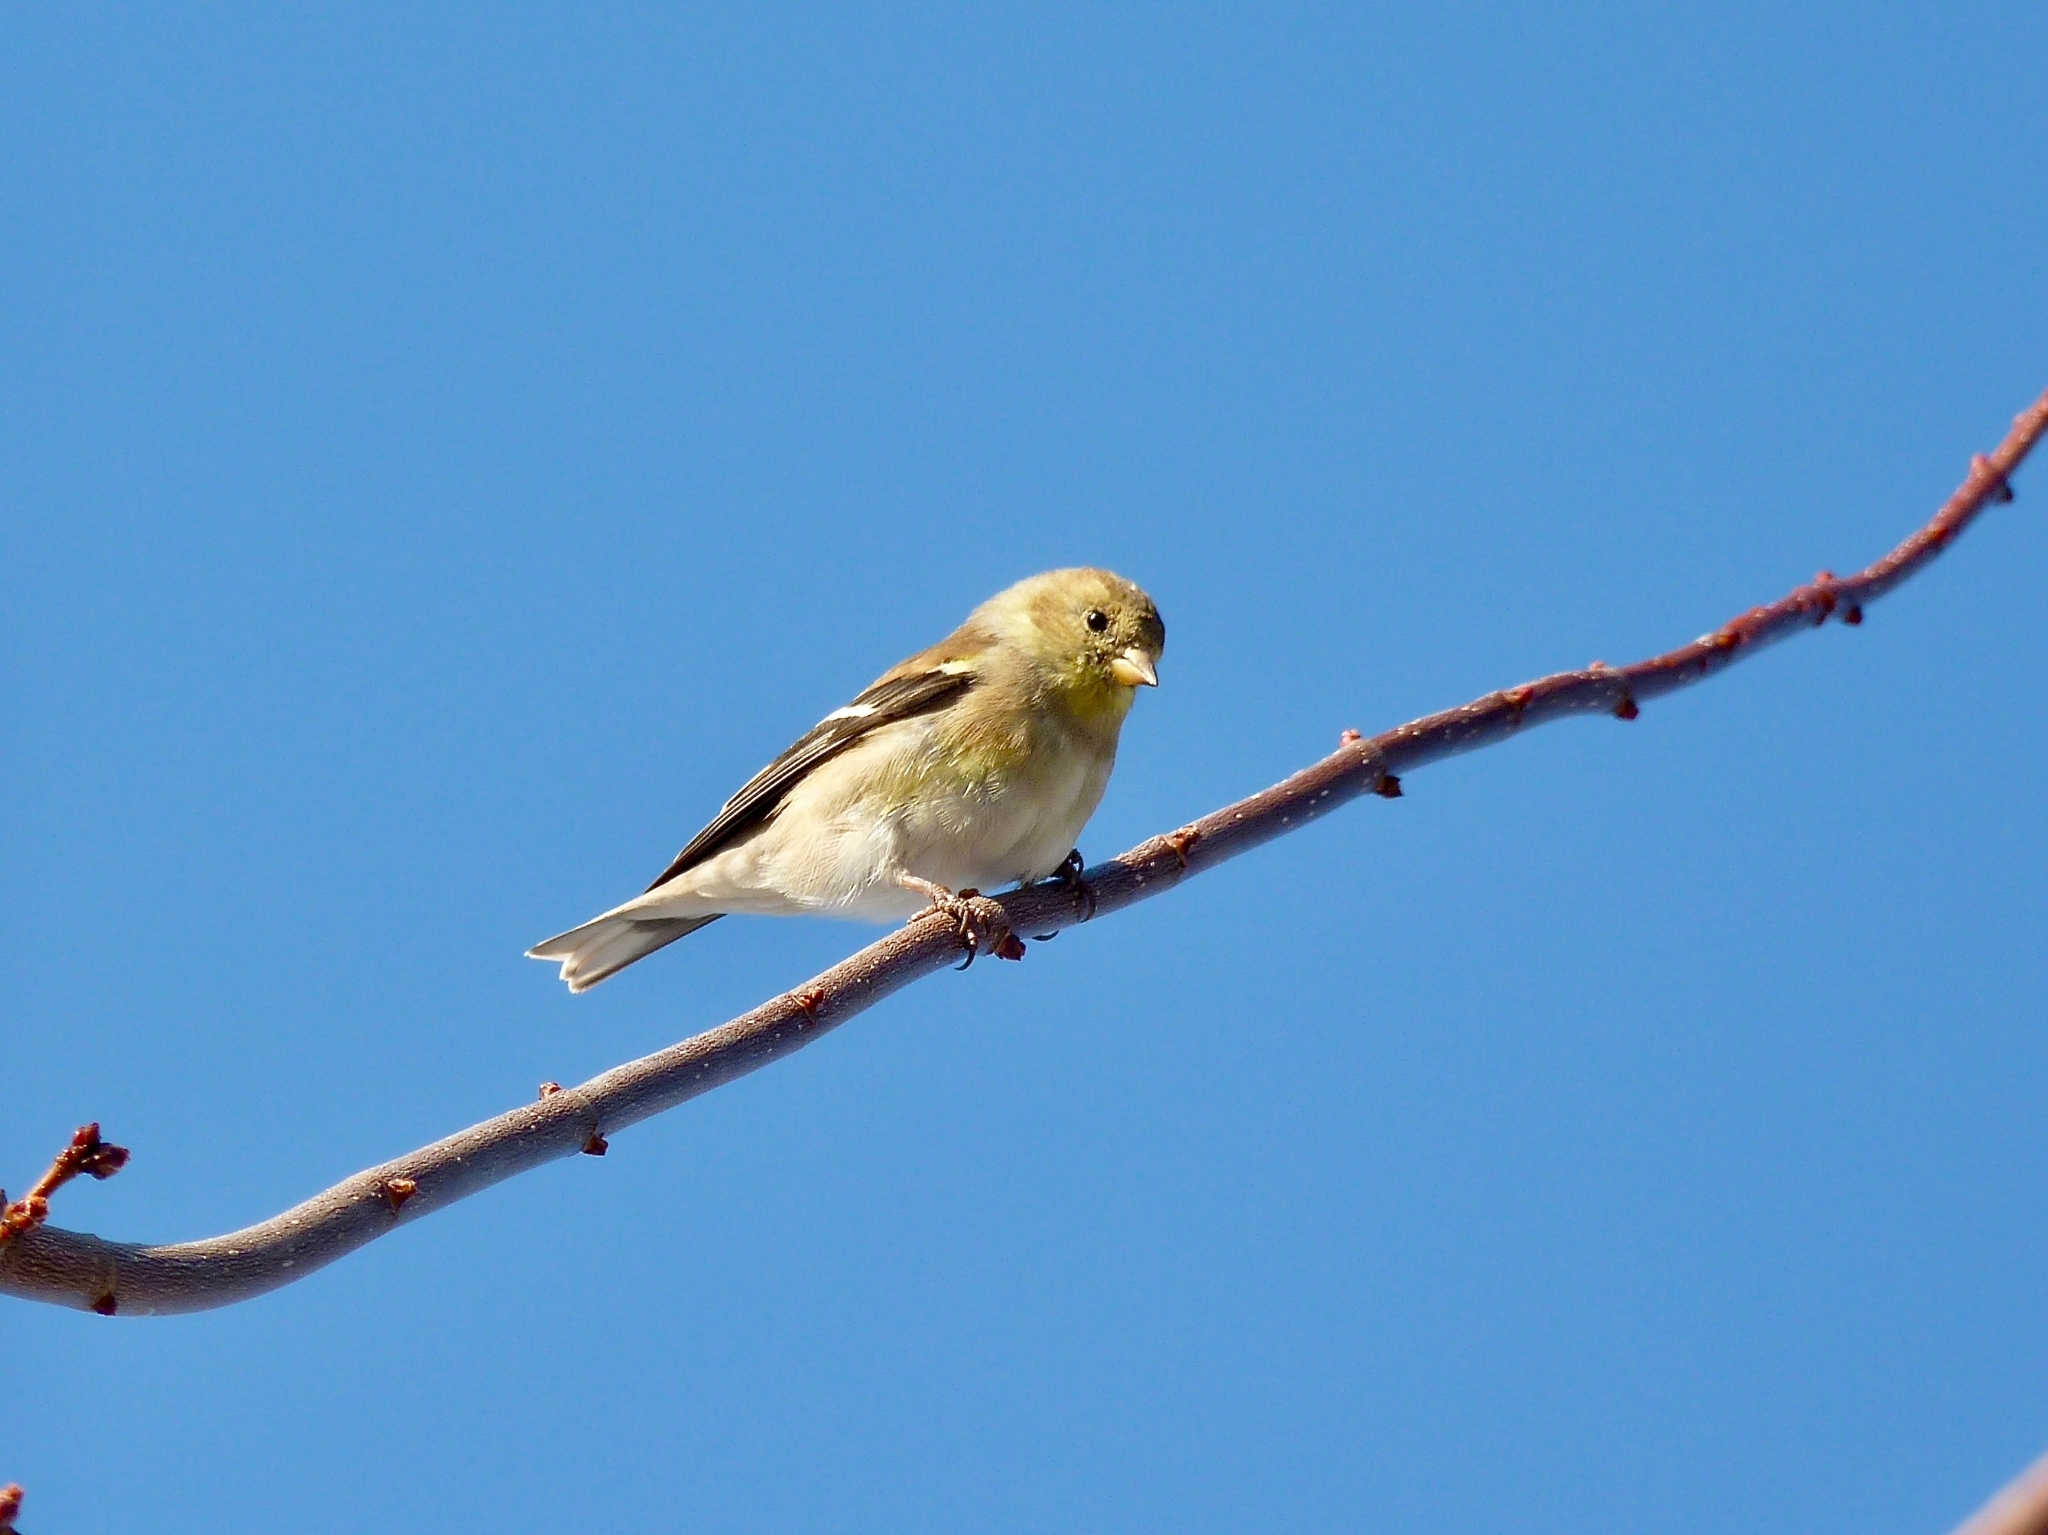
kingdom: Animalia
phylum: Chordata
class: Aves
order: Passeriformes
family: Fringillidae
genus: Spinus
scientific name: Spinus tristis
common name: American goldfinch
